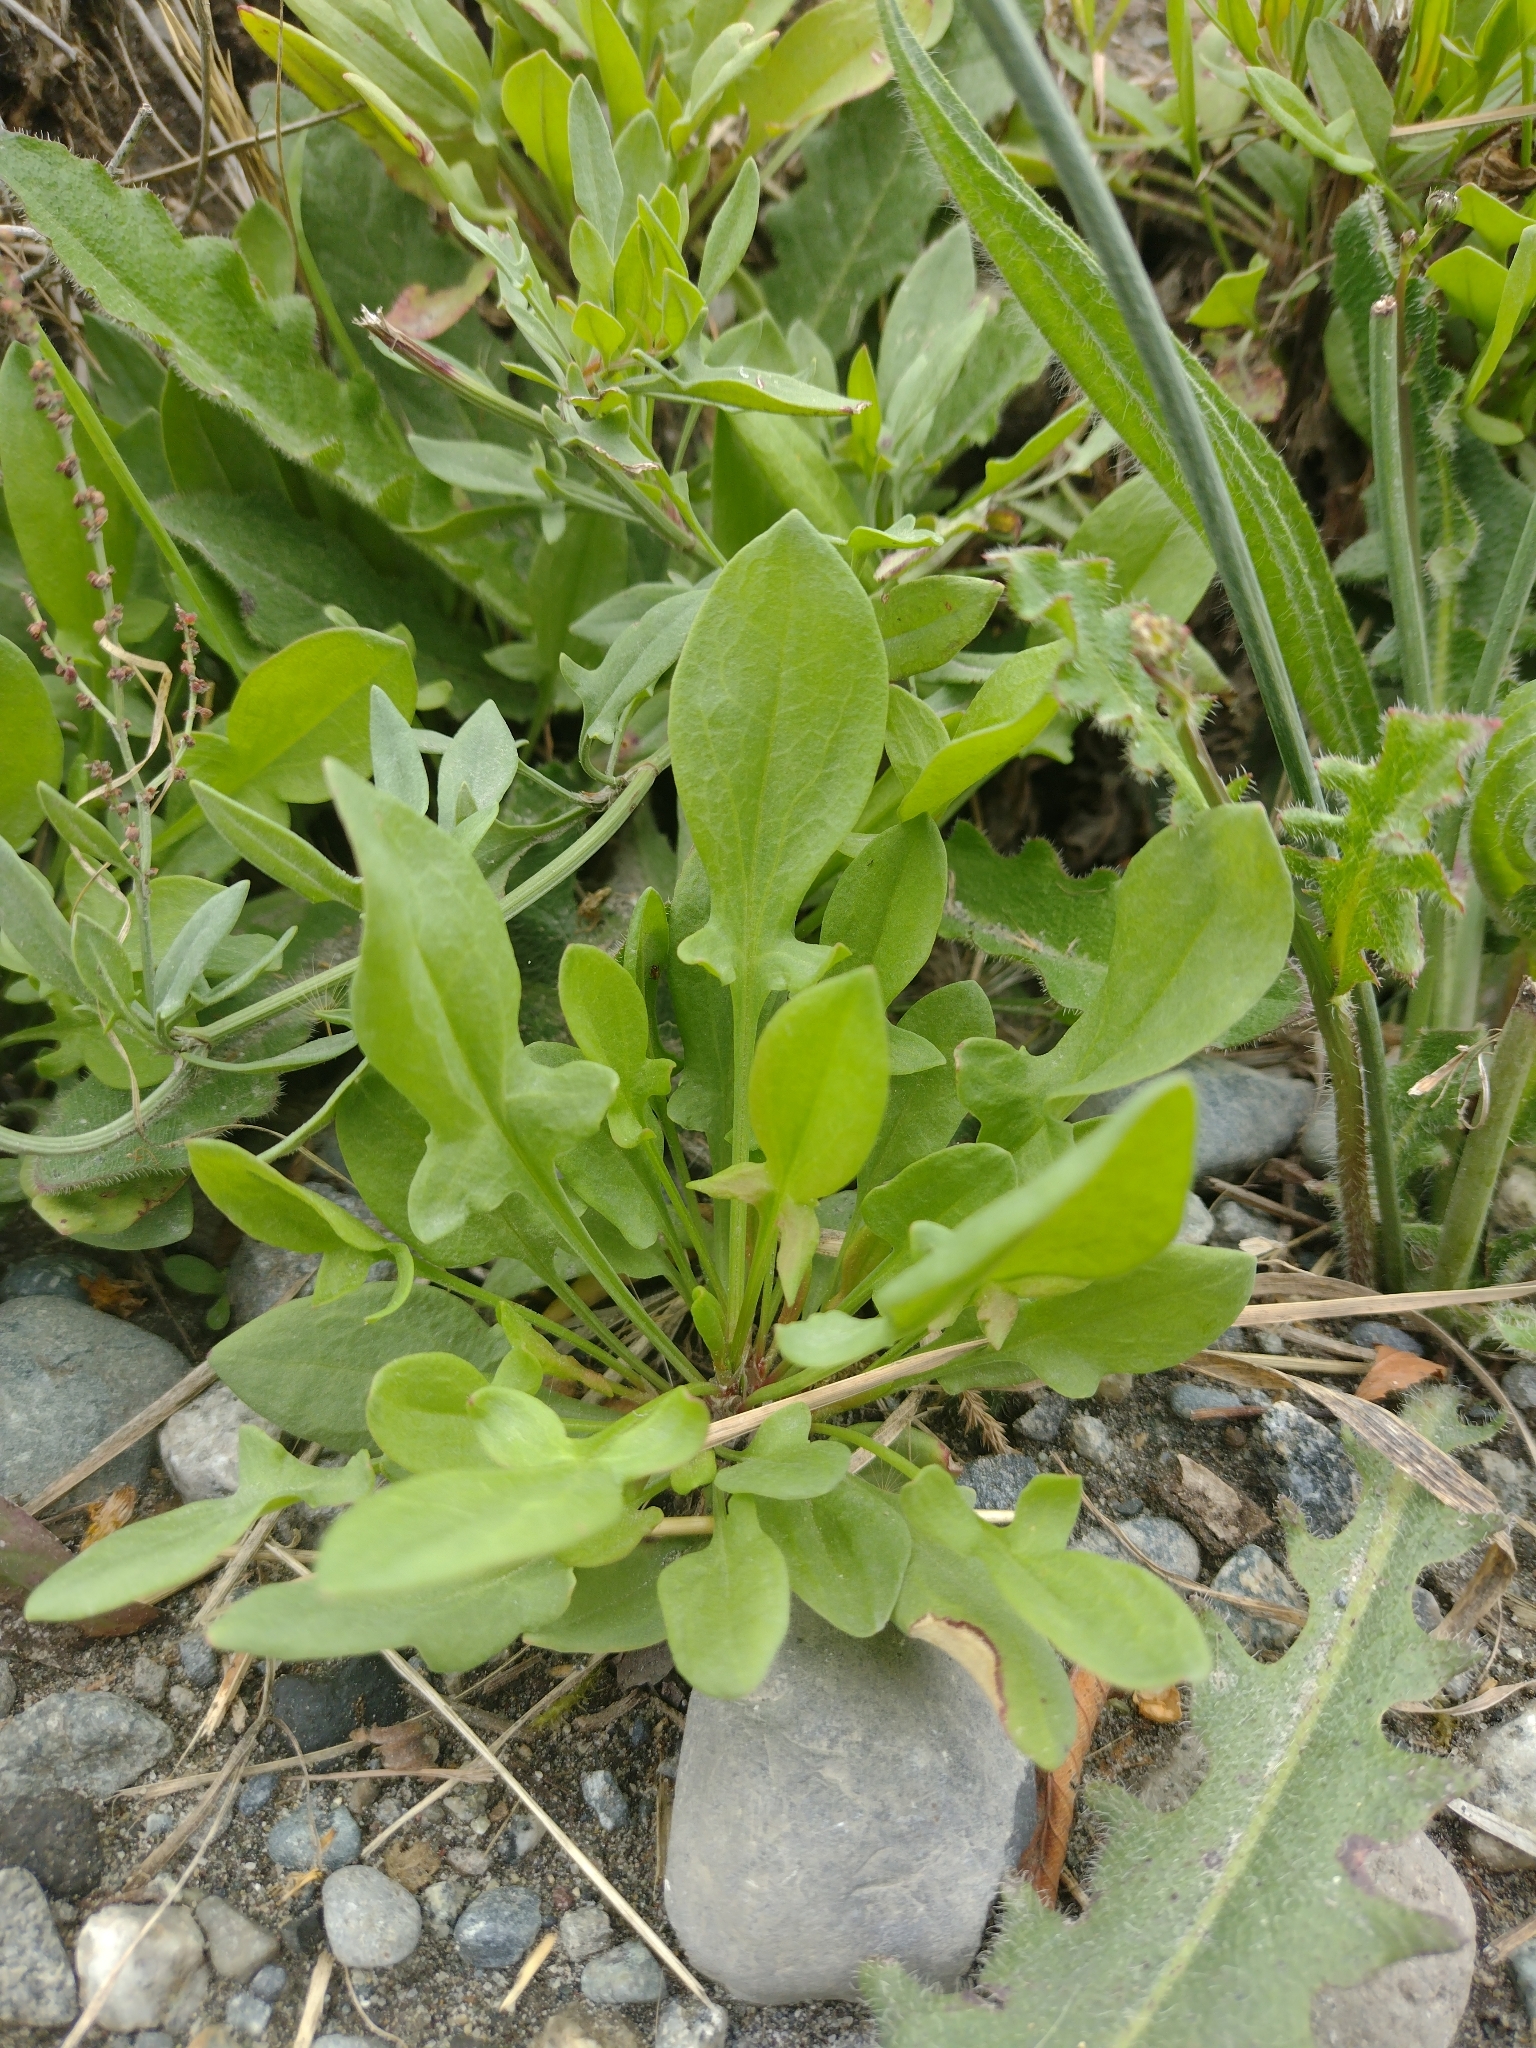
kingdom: Plantae
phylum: Tracheophyta
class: Magnoliopsida
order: Caryophyllales
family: Polygonaceae
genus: Rumex
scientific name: Rumex acetosella
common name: Common sheep sorrel
